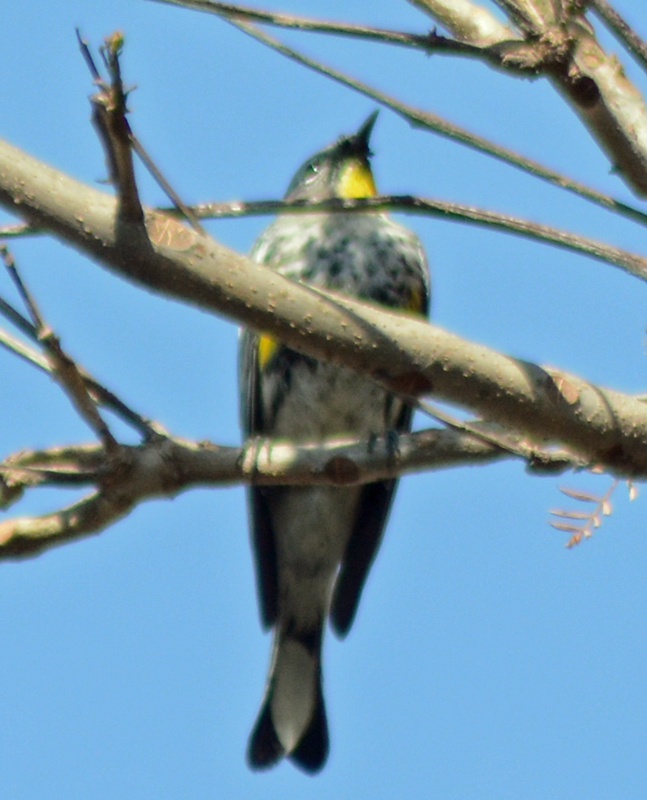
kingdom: Animalia
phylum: Chordata
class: Aves
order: Passeriformes
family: Parulidae
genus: Setophaga
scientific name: Setophaga coronata
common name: Myrtle warbler
